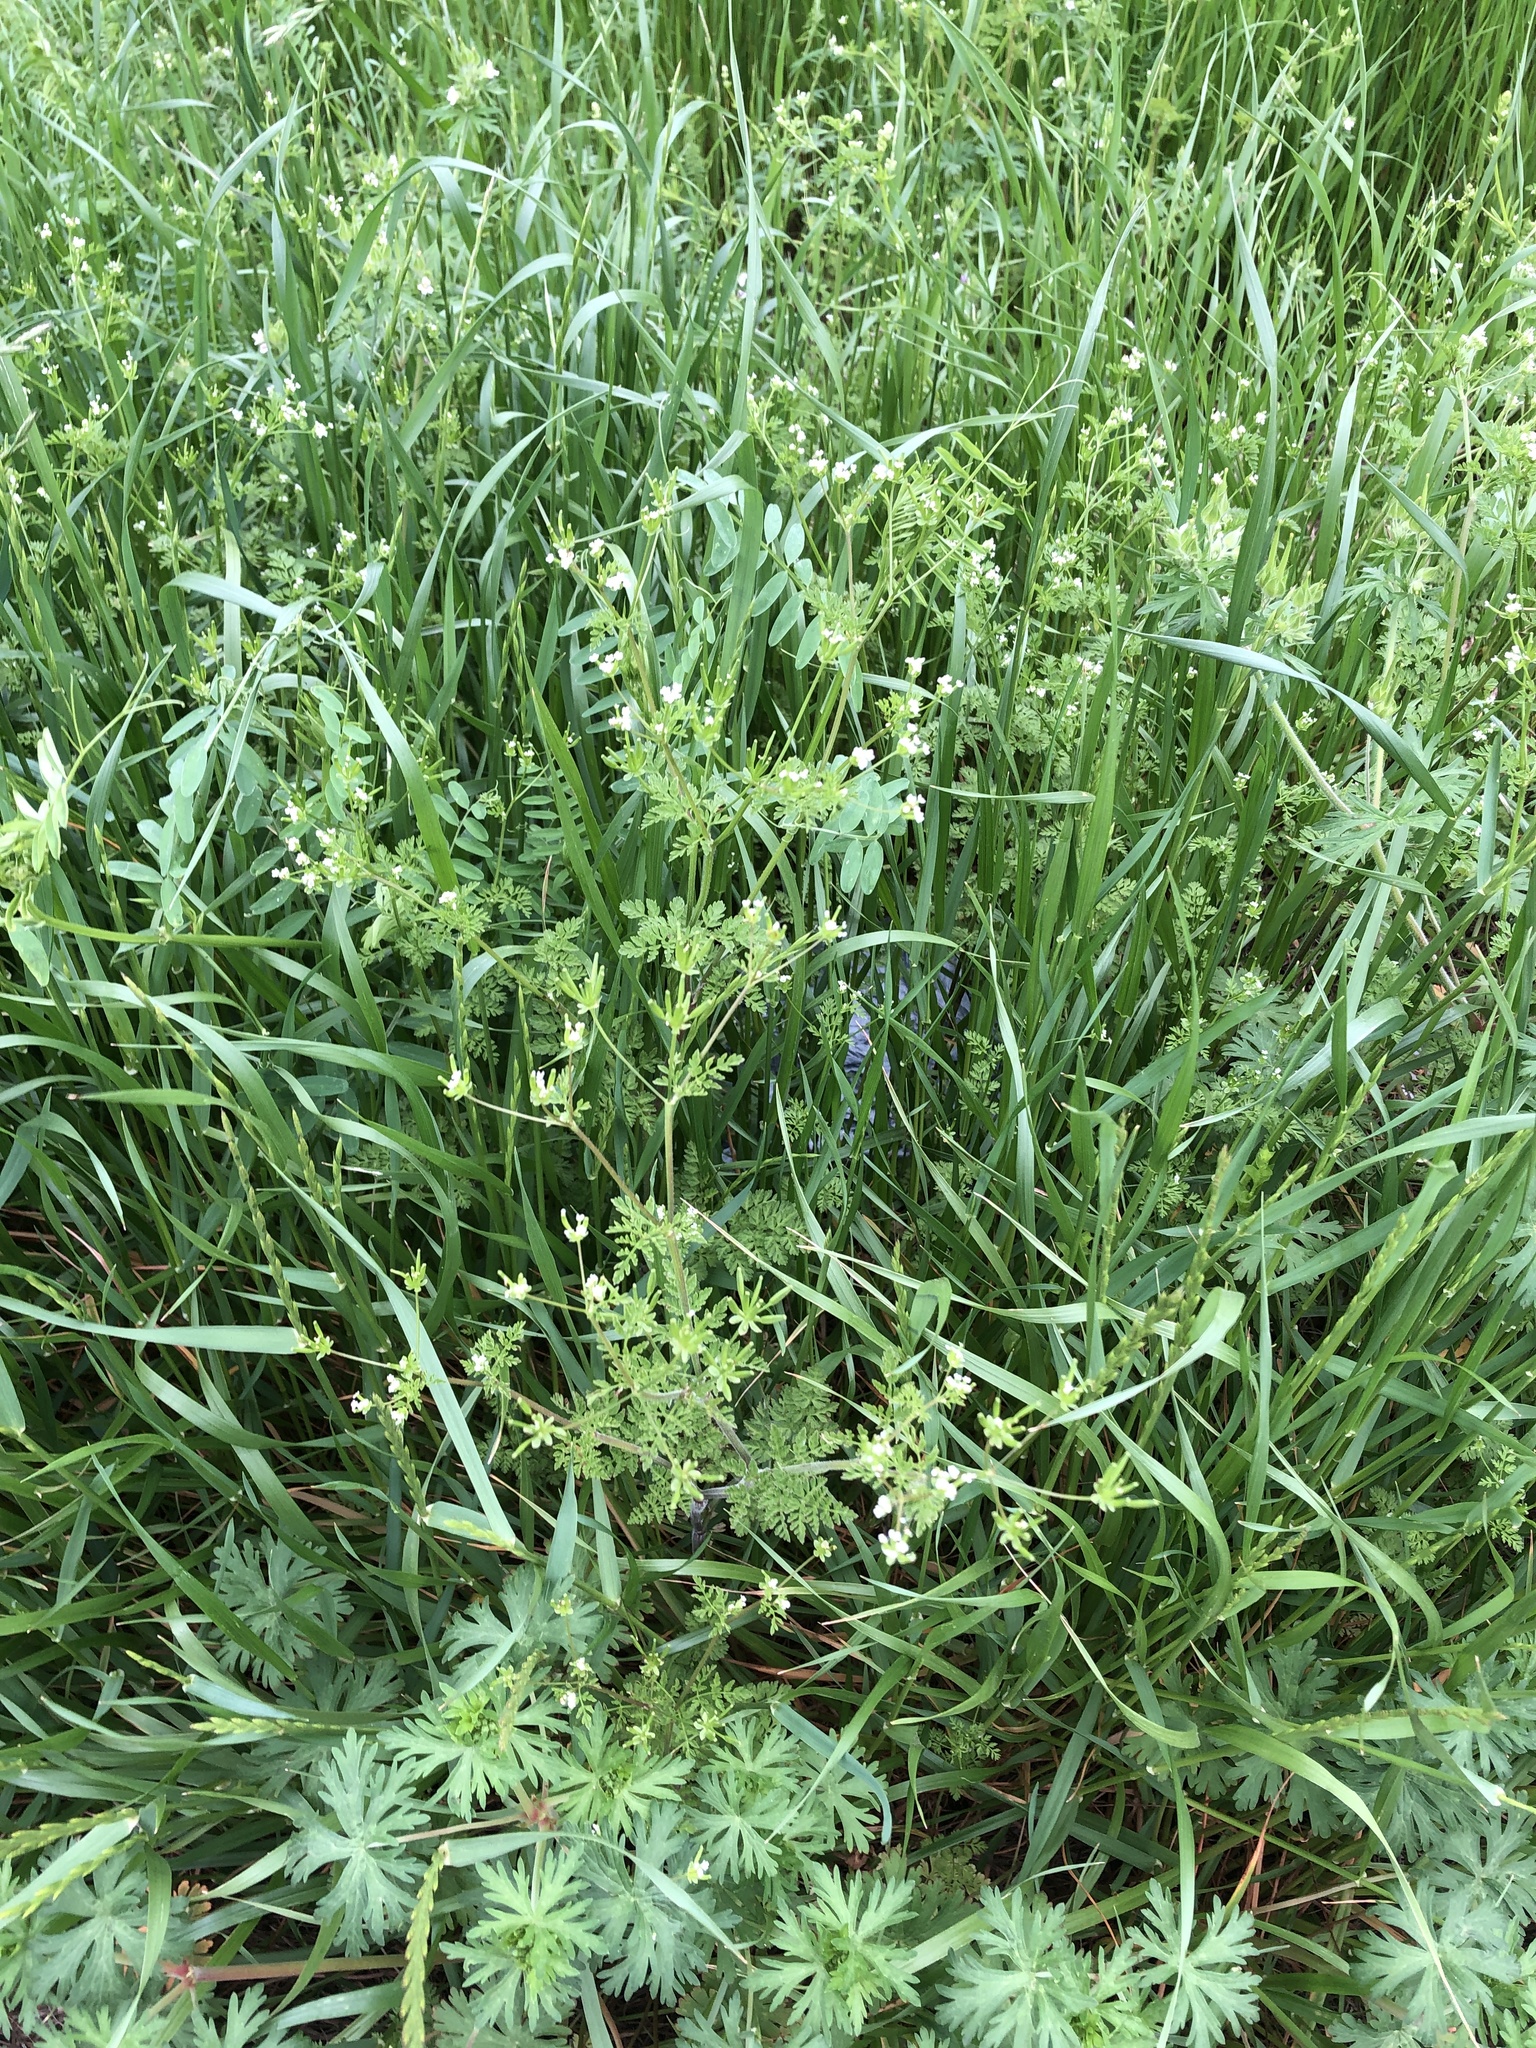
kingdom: Plantae
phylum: Tracheophyta
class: Magnoliopsida
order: Apiales
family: Apiaceae
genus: Chaerophyllum
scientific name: Chaerophyllum tainturieri
